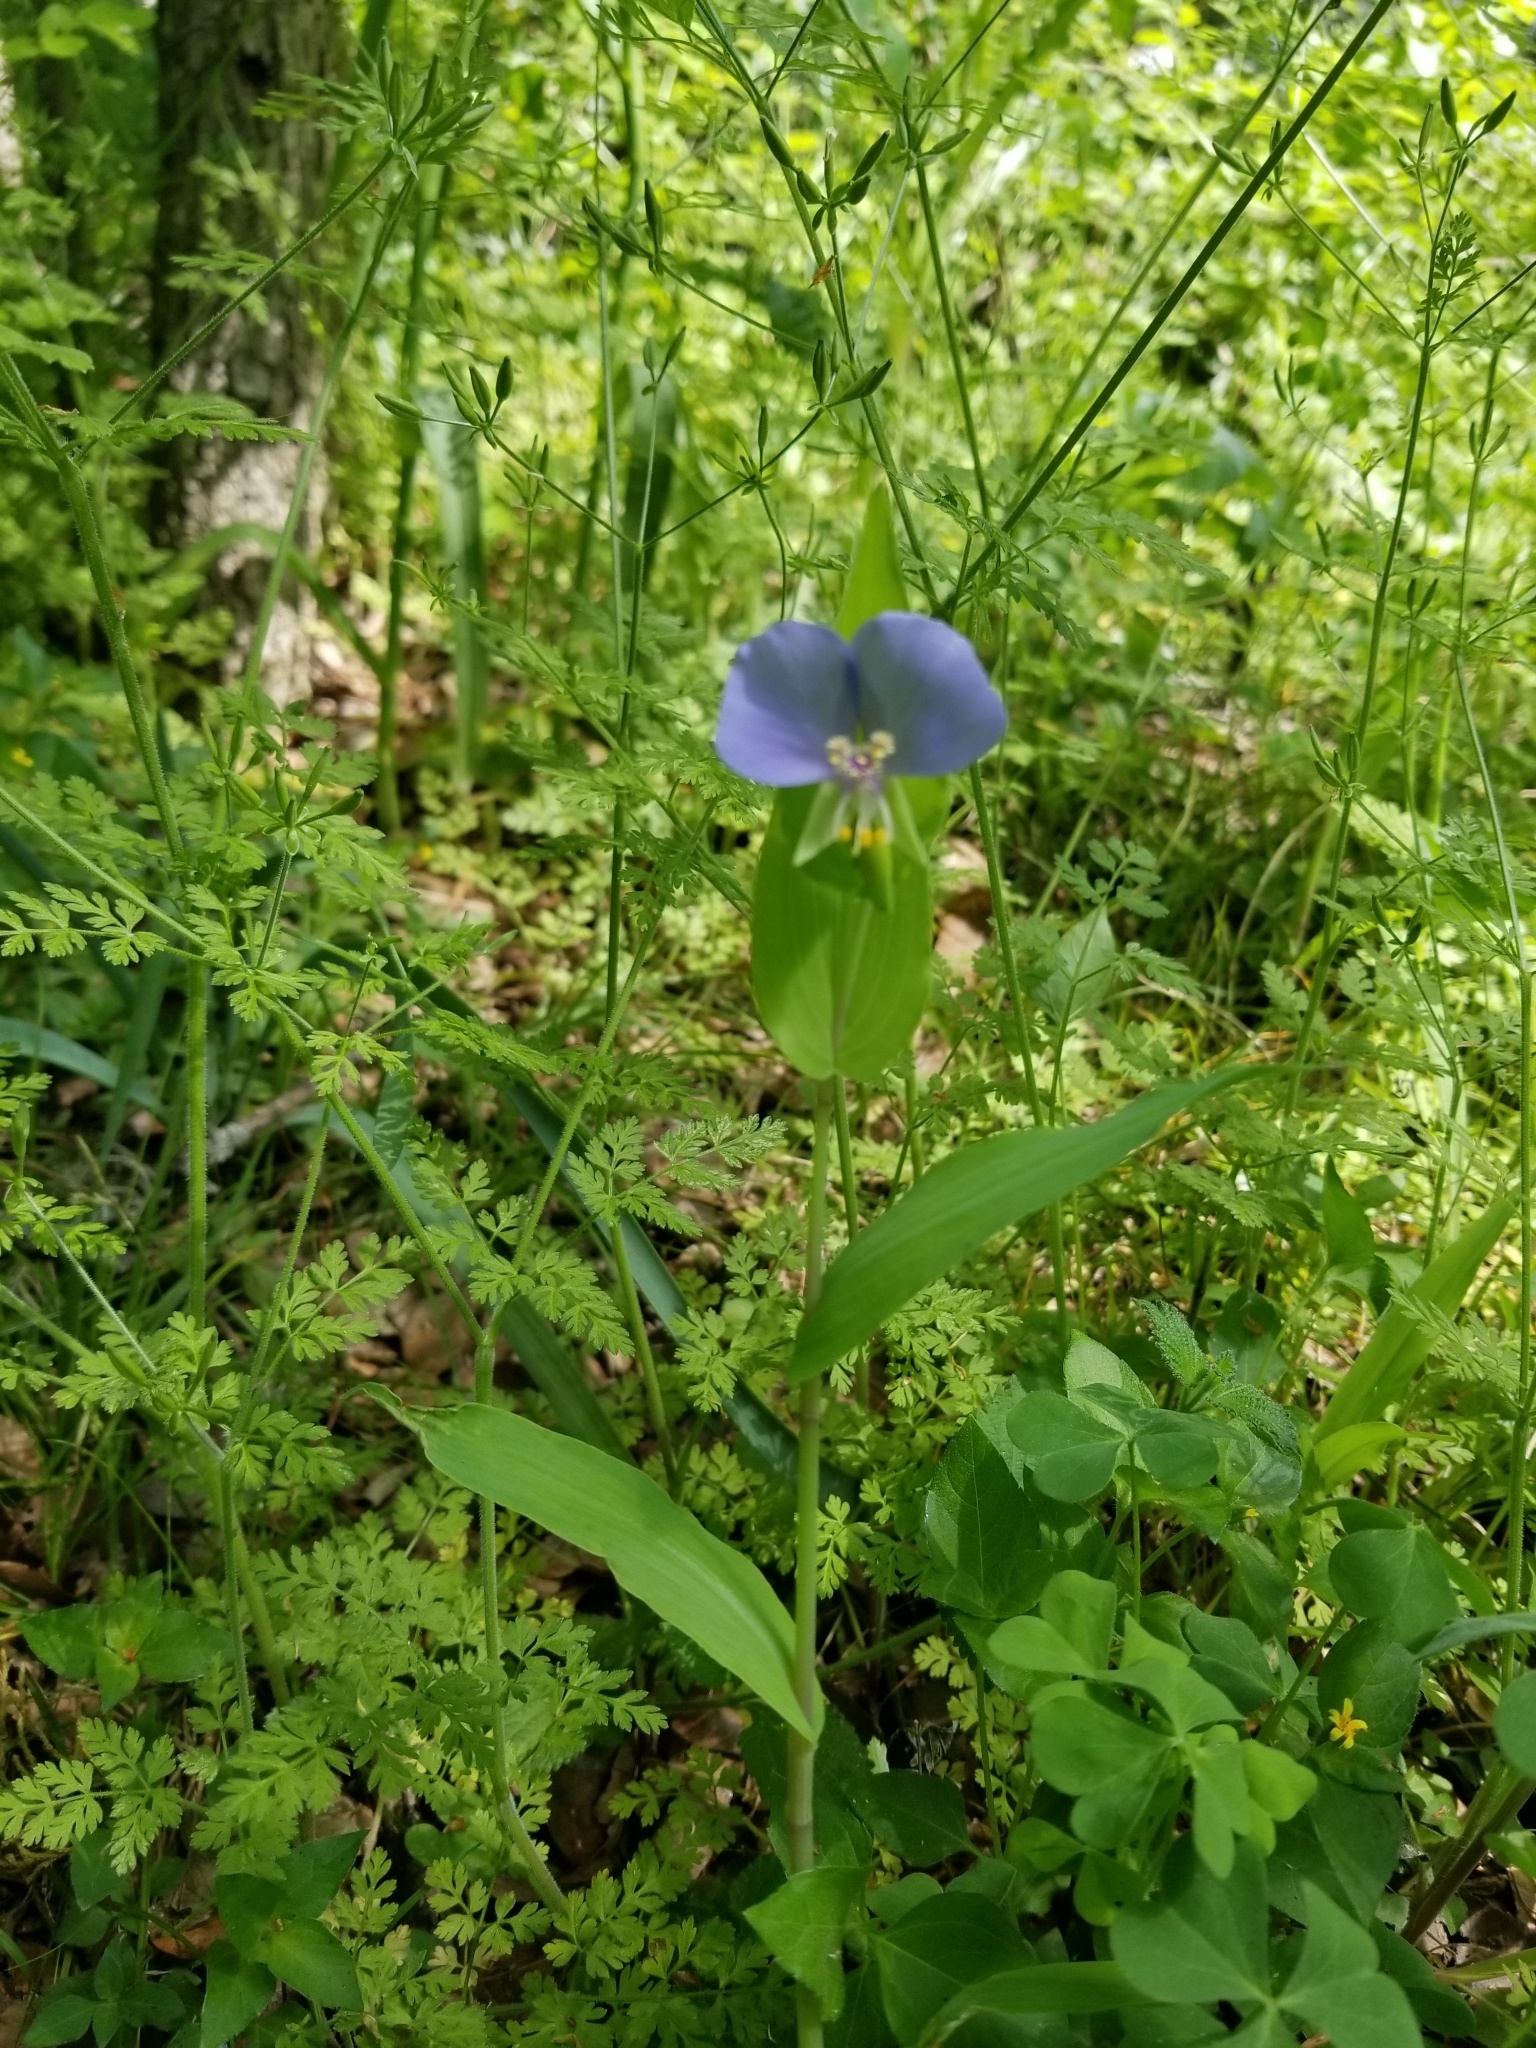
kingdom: Plantae
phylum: Tracheophyta
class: Liliopsida
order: Commelinales
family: Commelinaceae
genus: Tinantia
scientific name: Tinantia anomala
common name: False dayflower
